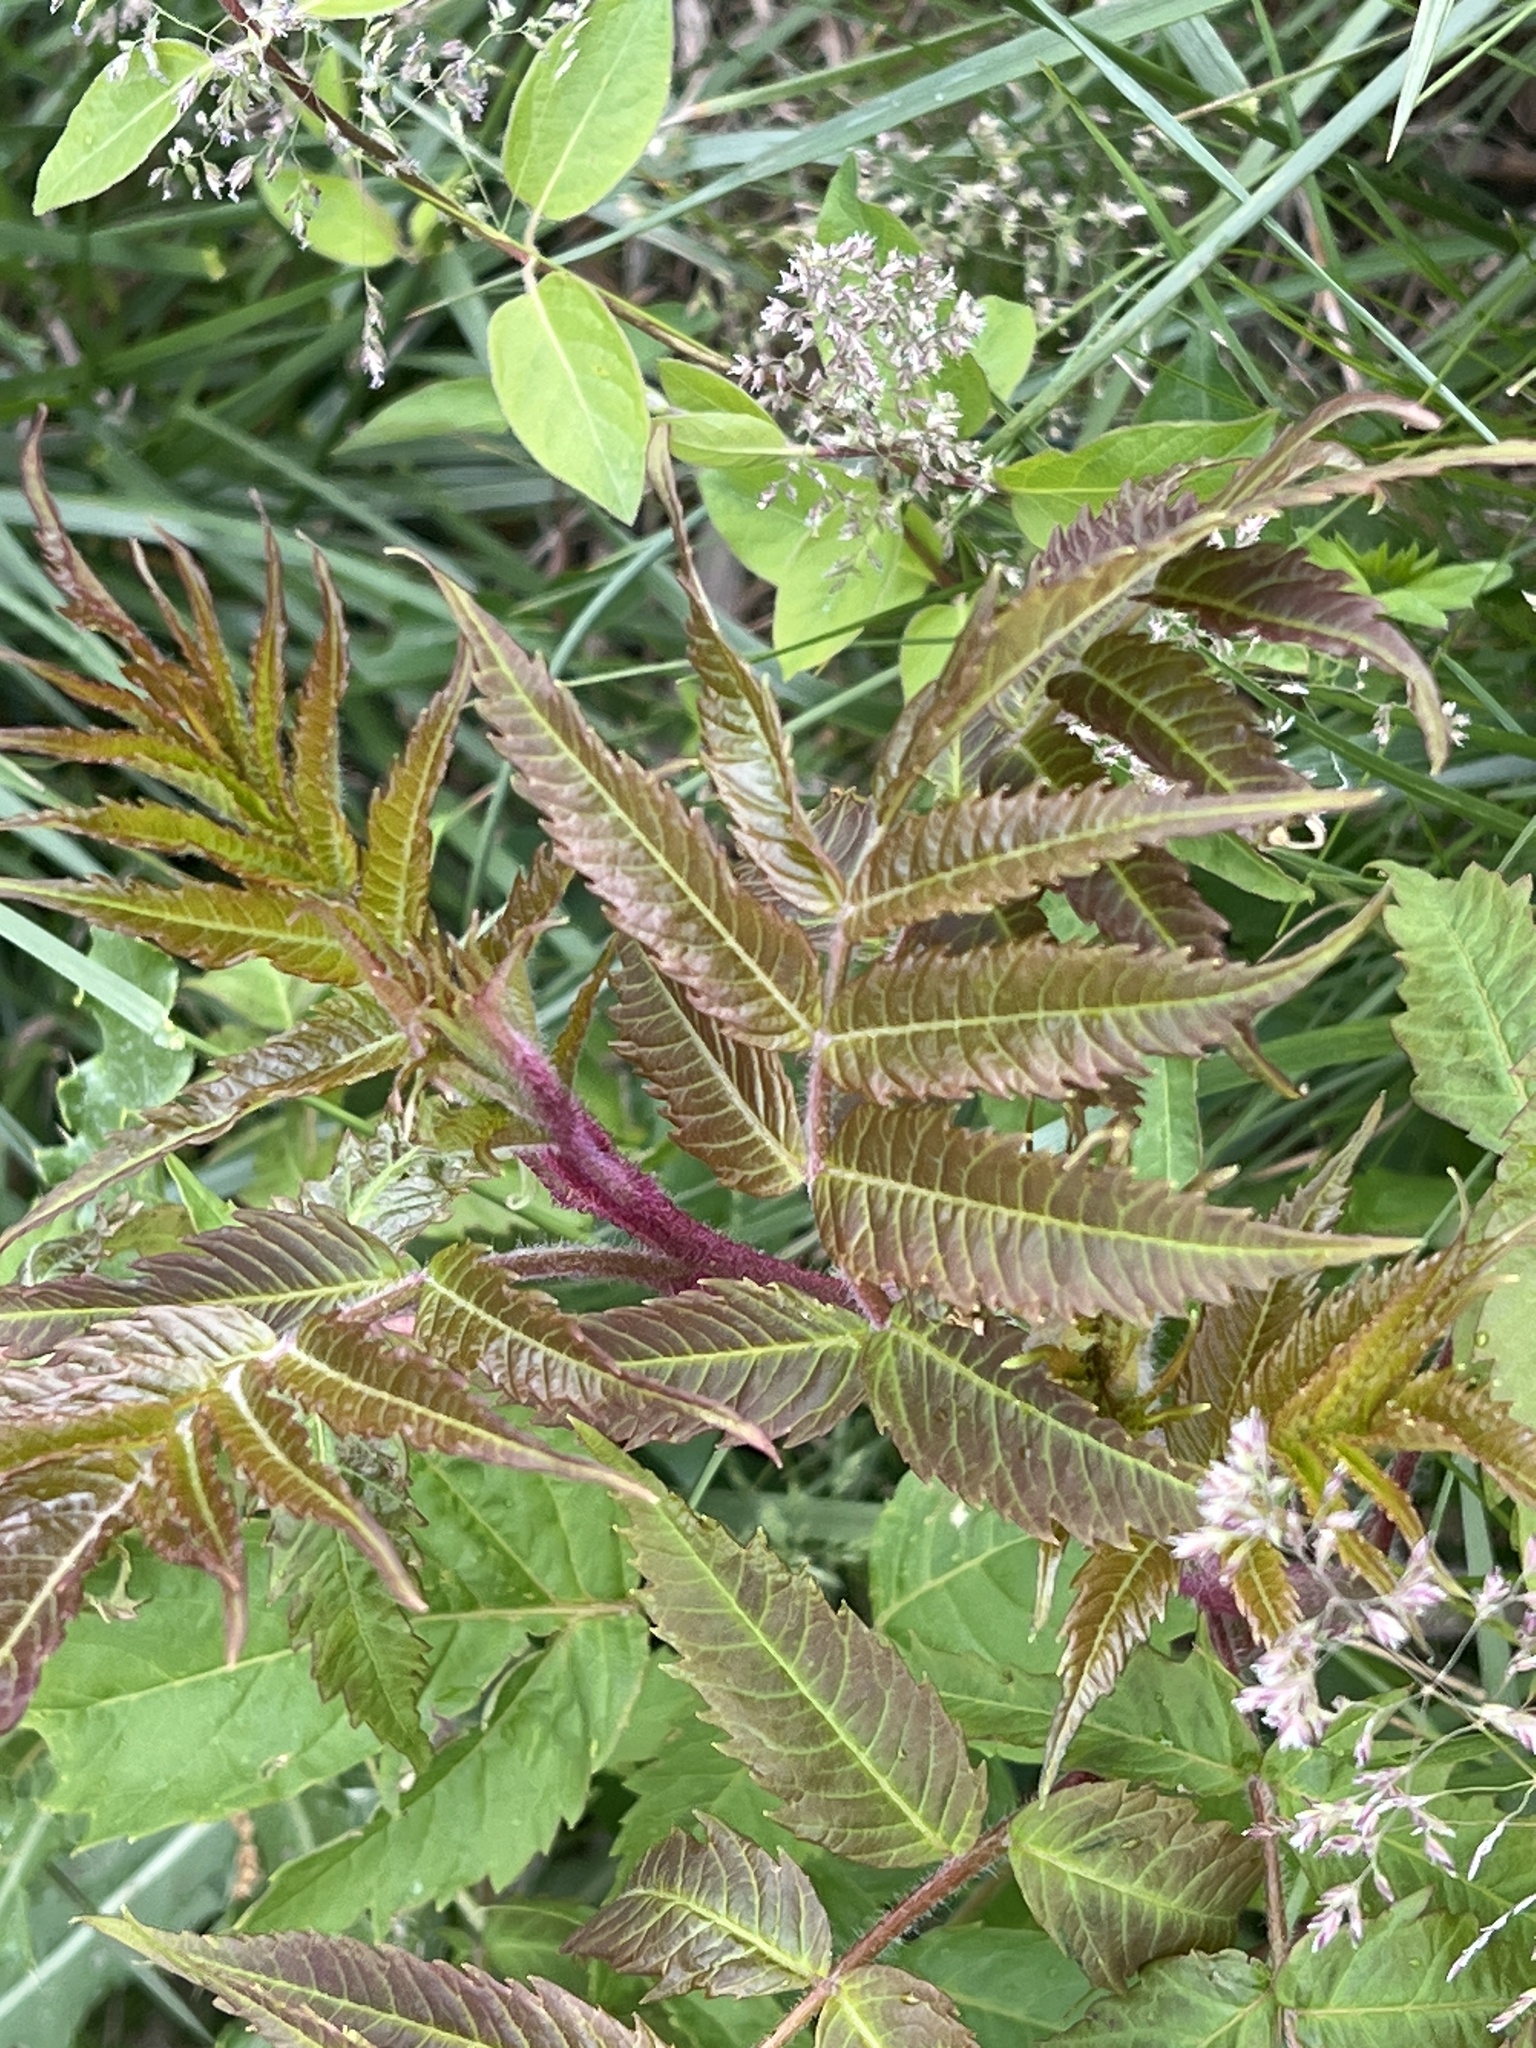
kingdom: Plantae
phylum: Tracheophyta
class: Magnoliopsida
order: Sapindales
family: Anacardiaceae
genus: Rhus
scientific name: Rhus typhina
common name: Staghorn sumac
